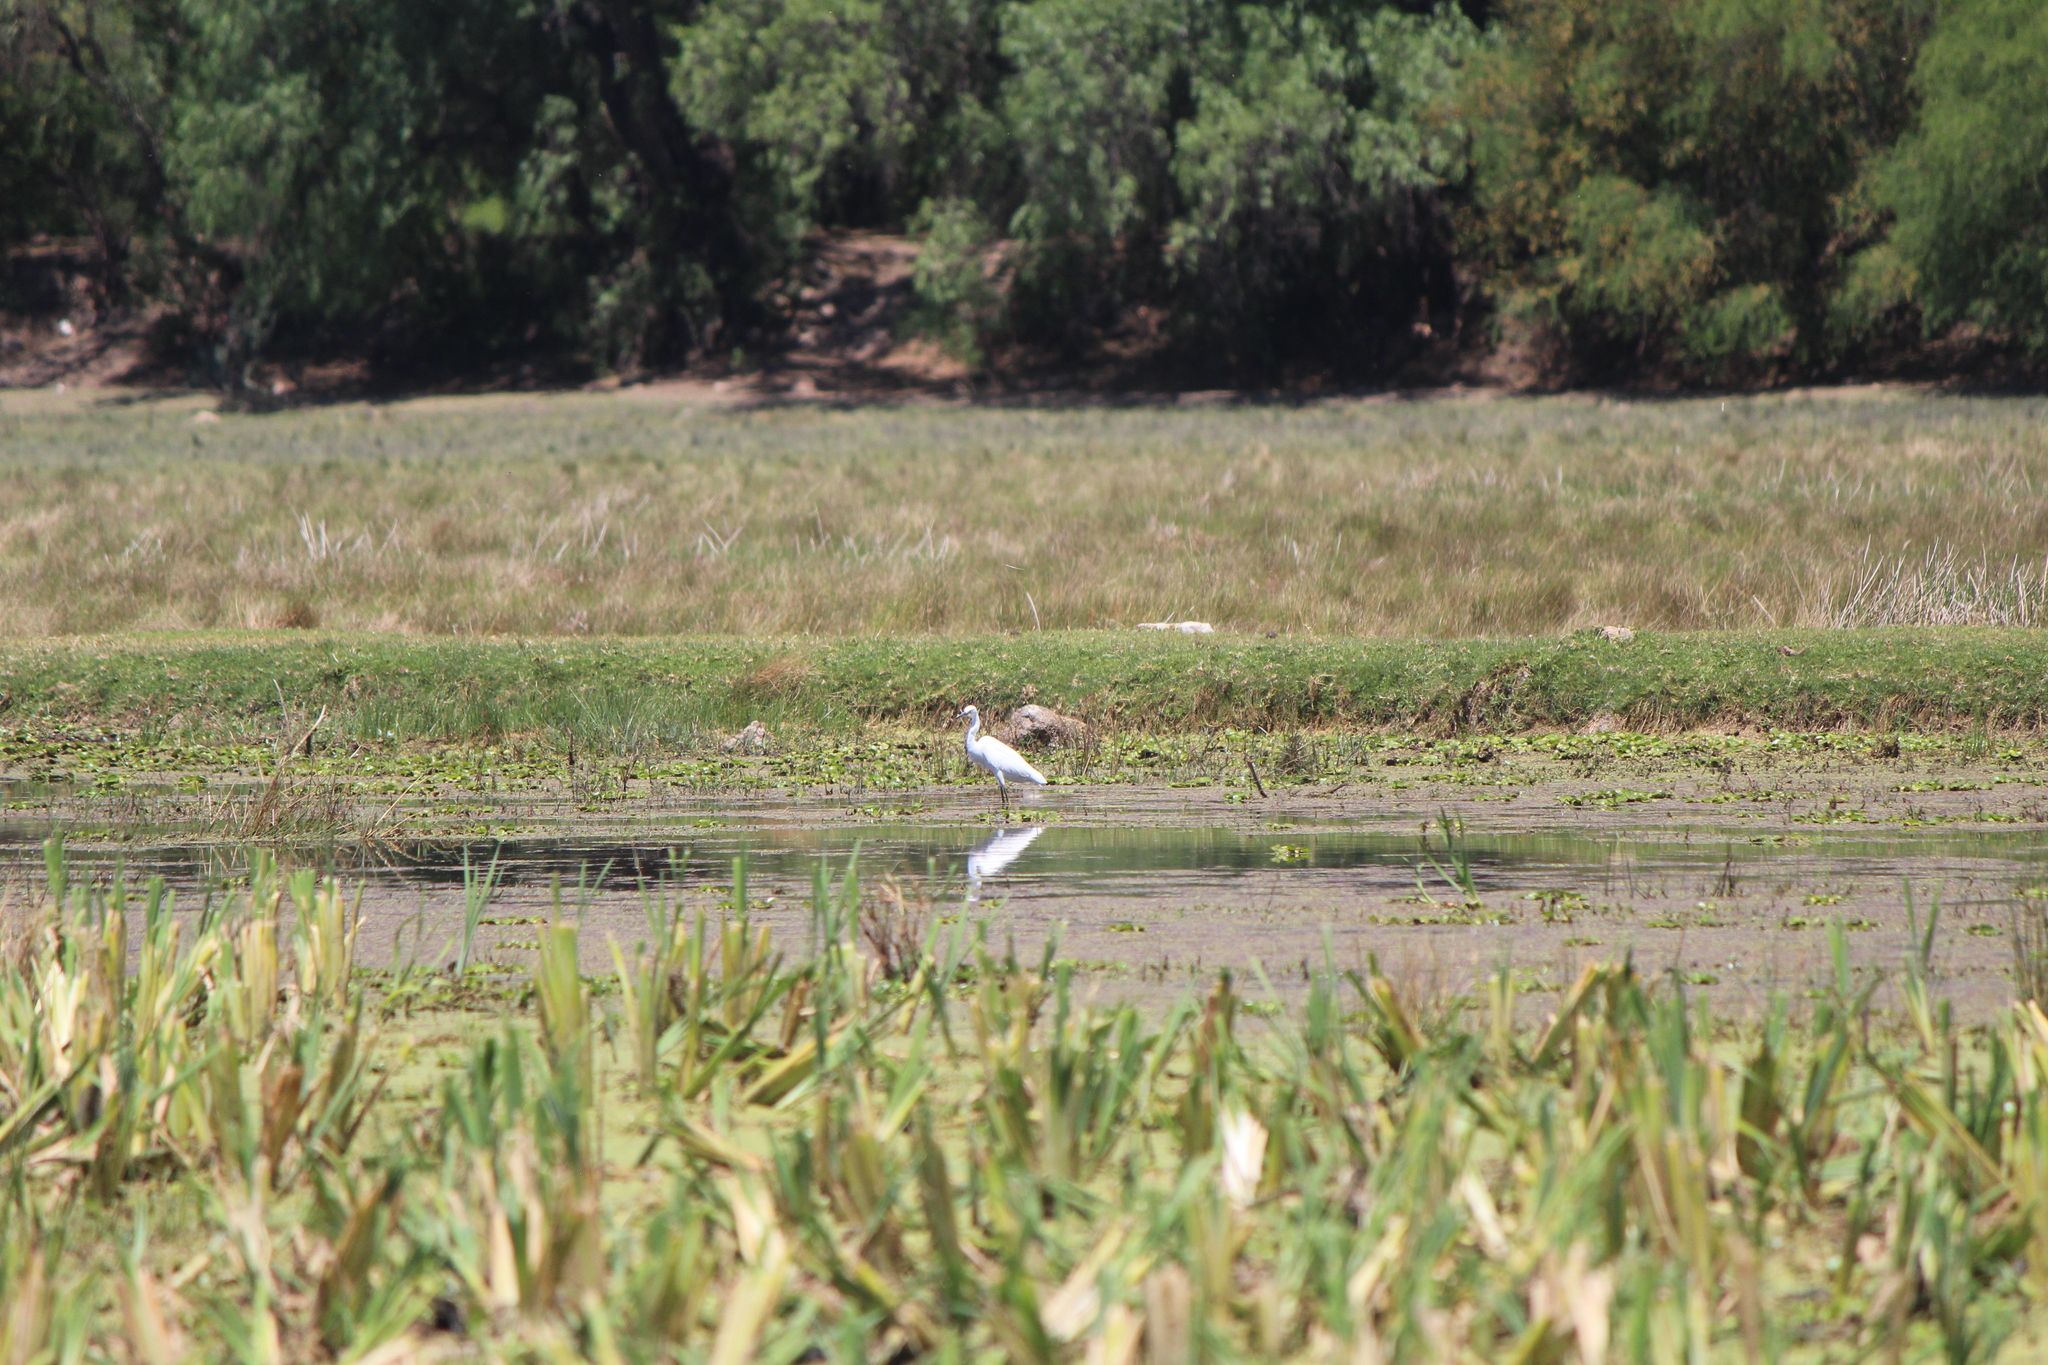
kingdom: Animalia
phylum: Chordata
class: Aves
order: Pelecaniformes
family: Ardeidae
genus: Egretta
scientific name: Egretta thula
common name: Snowy egret
